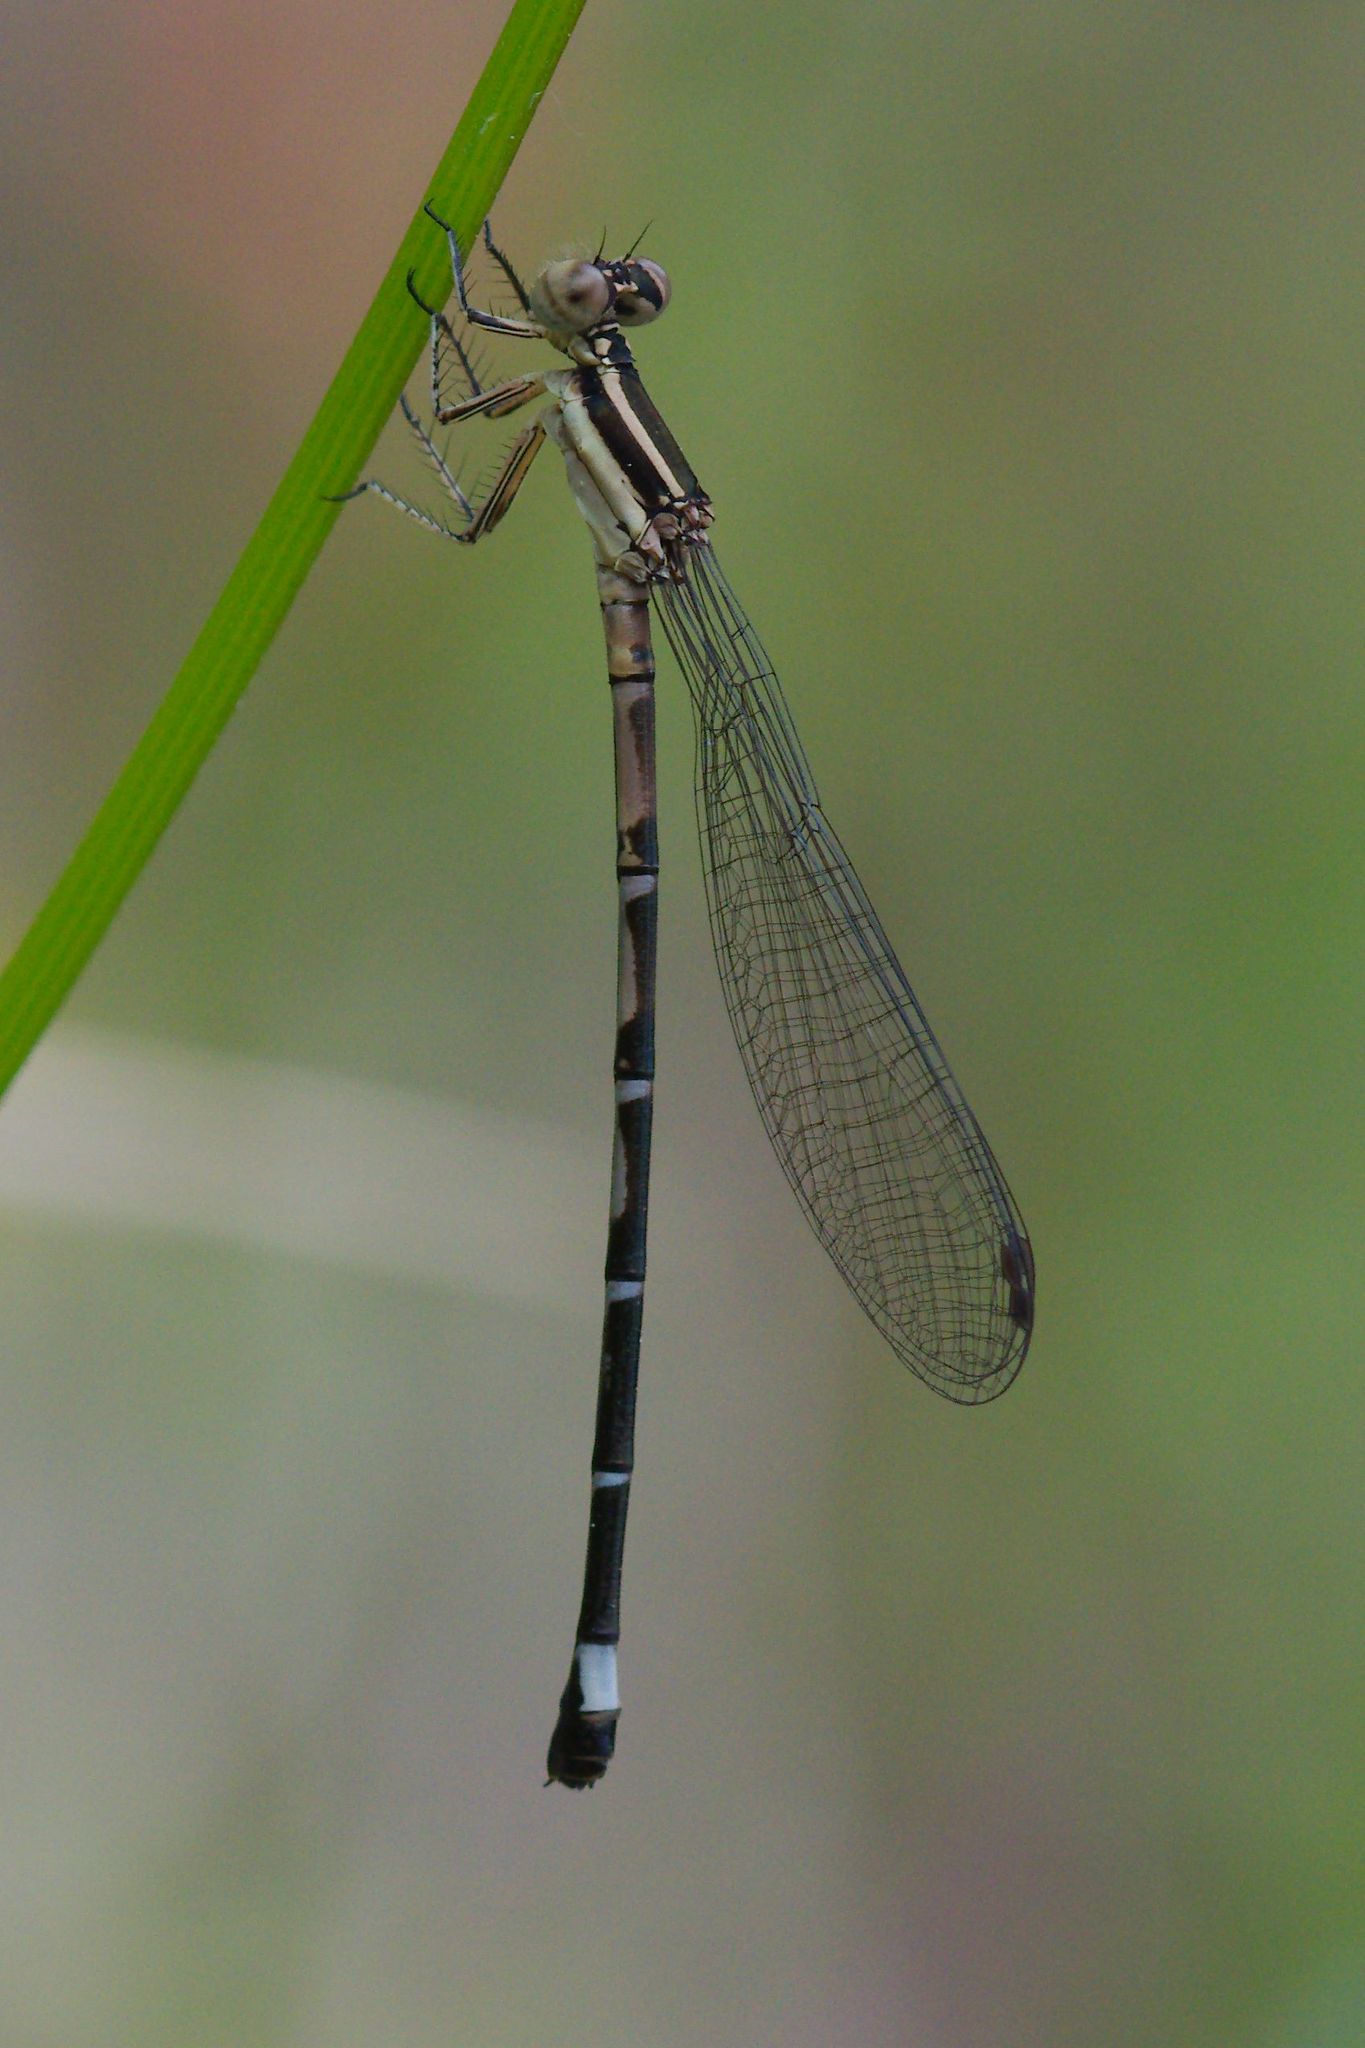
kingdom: Animalia
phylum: Arthropoda
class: Insecta
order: Odonata
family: Coenagrionidae
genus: Argia
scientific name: Argia bipunctulata
